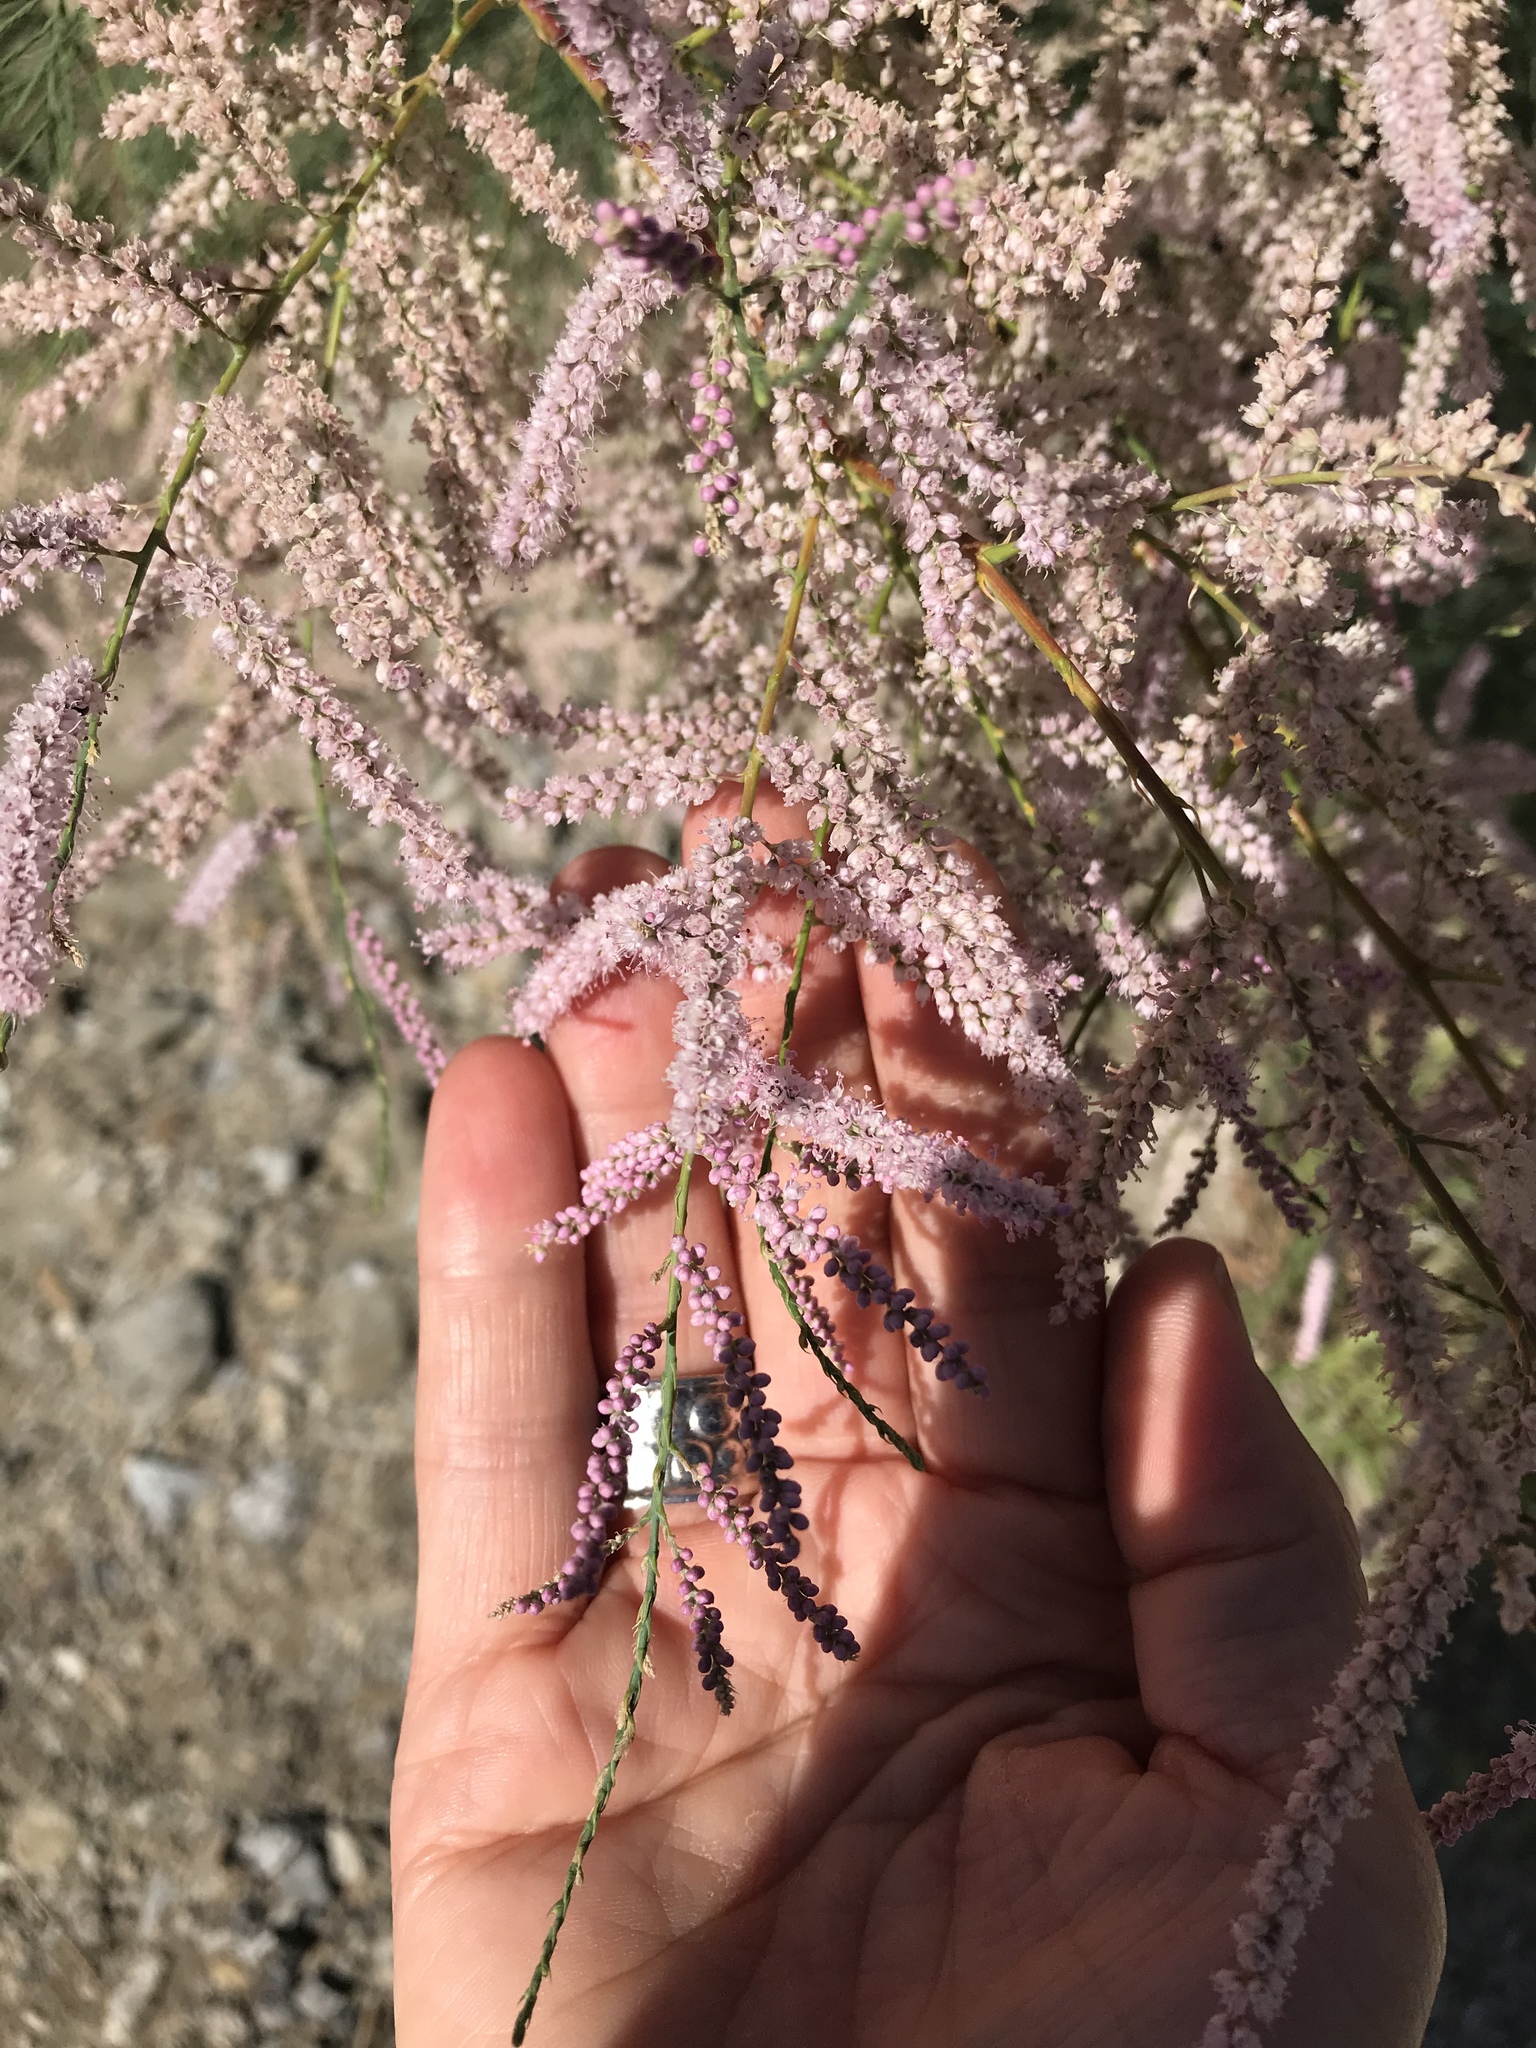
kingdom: Plantae
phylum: Tracheophyta
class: Magnoliopsida
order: Caryophyllales
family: Tamaricaceae
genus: Tamarix
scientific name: Tamarix
